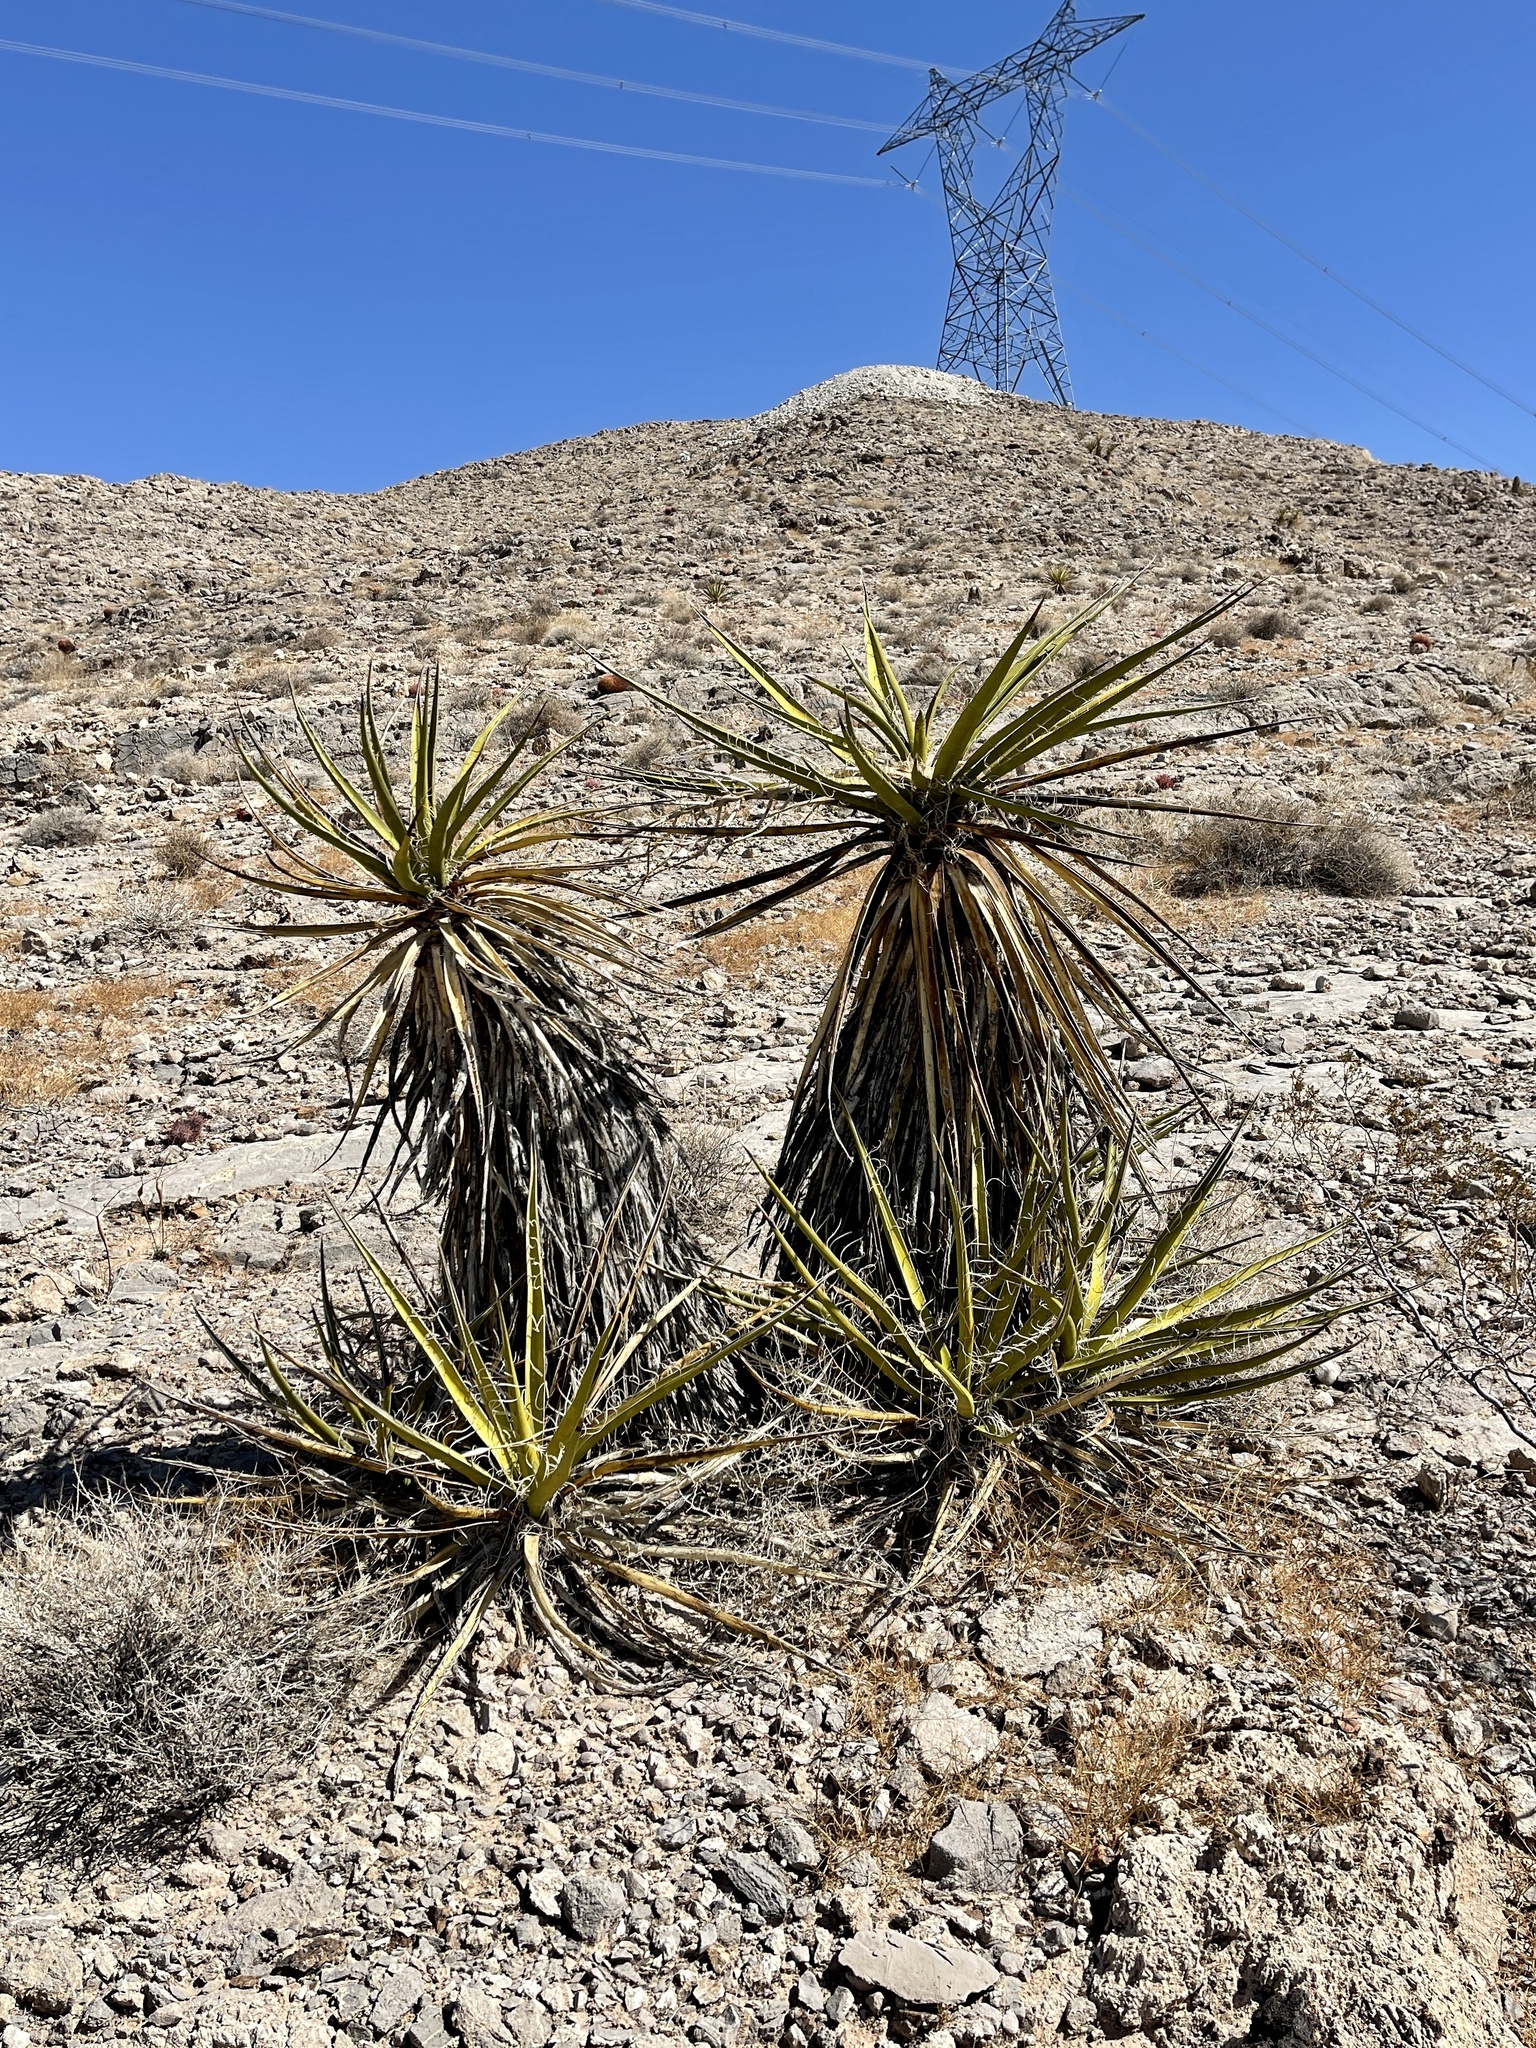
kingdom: Plantae
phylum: Tracheophyta
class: Liliopsida
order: Asparagales
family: Asparagaceae
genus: Yucca
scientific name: Yucca schidigera
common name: Mojave yucca
